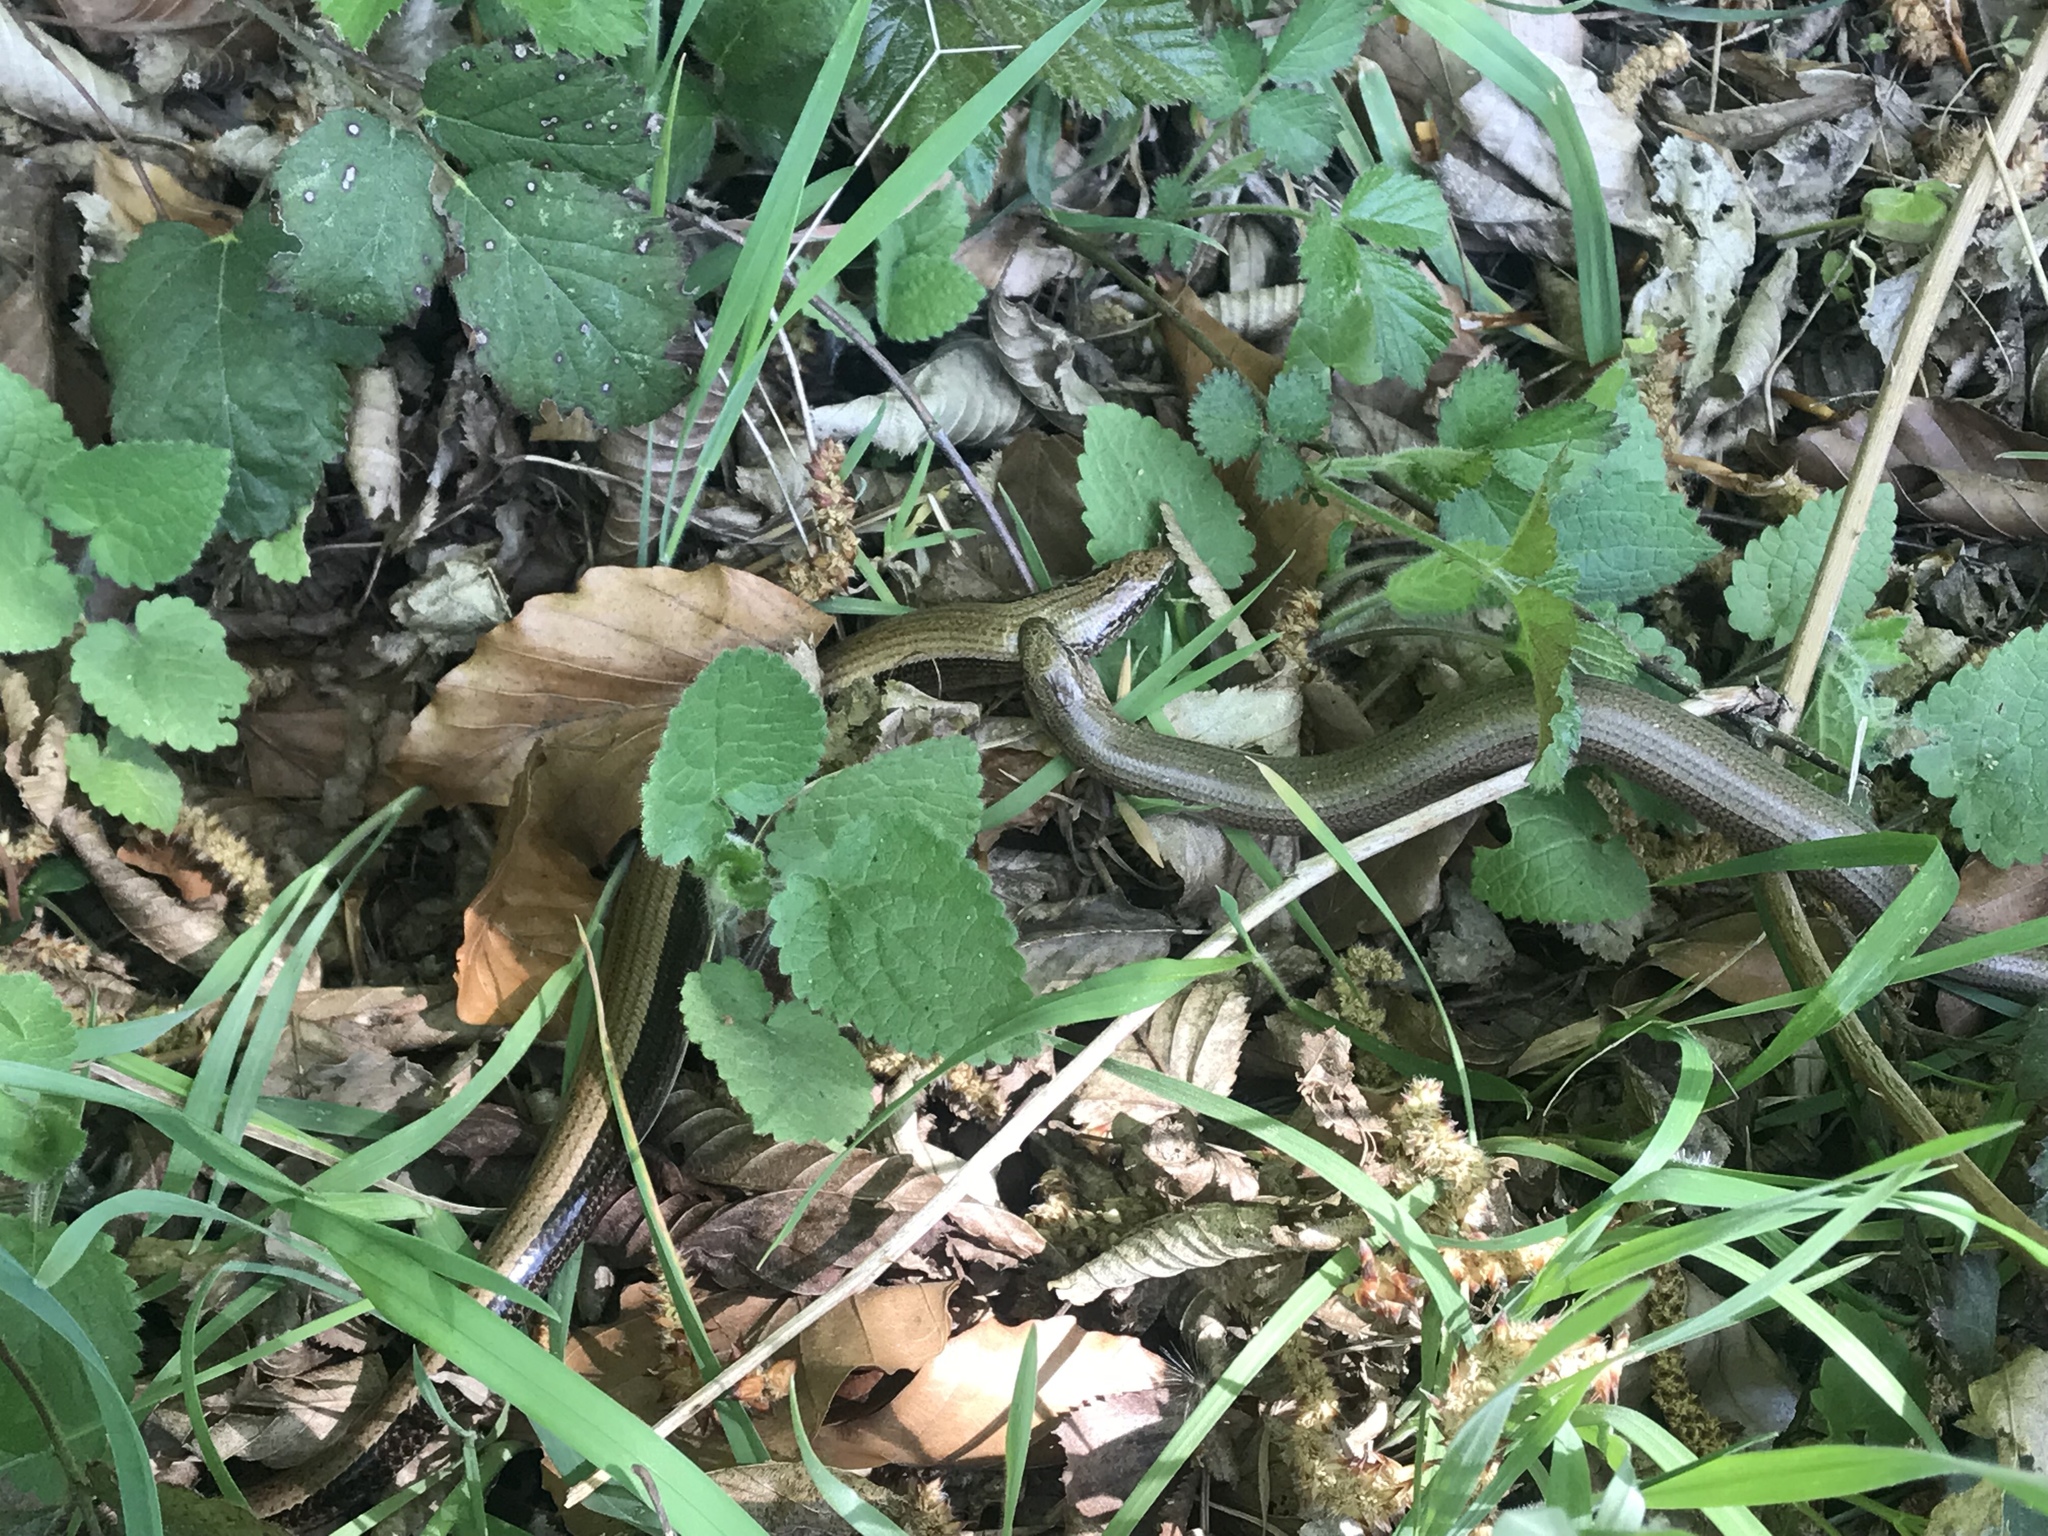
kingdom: Animalia
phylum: Chordata
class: Squamata
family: Anguidae
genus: Anguis
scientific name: Anguis fragilis
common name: Slow worm
